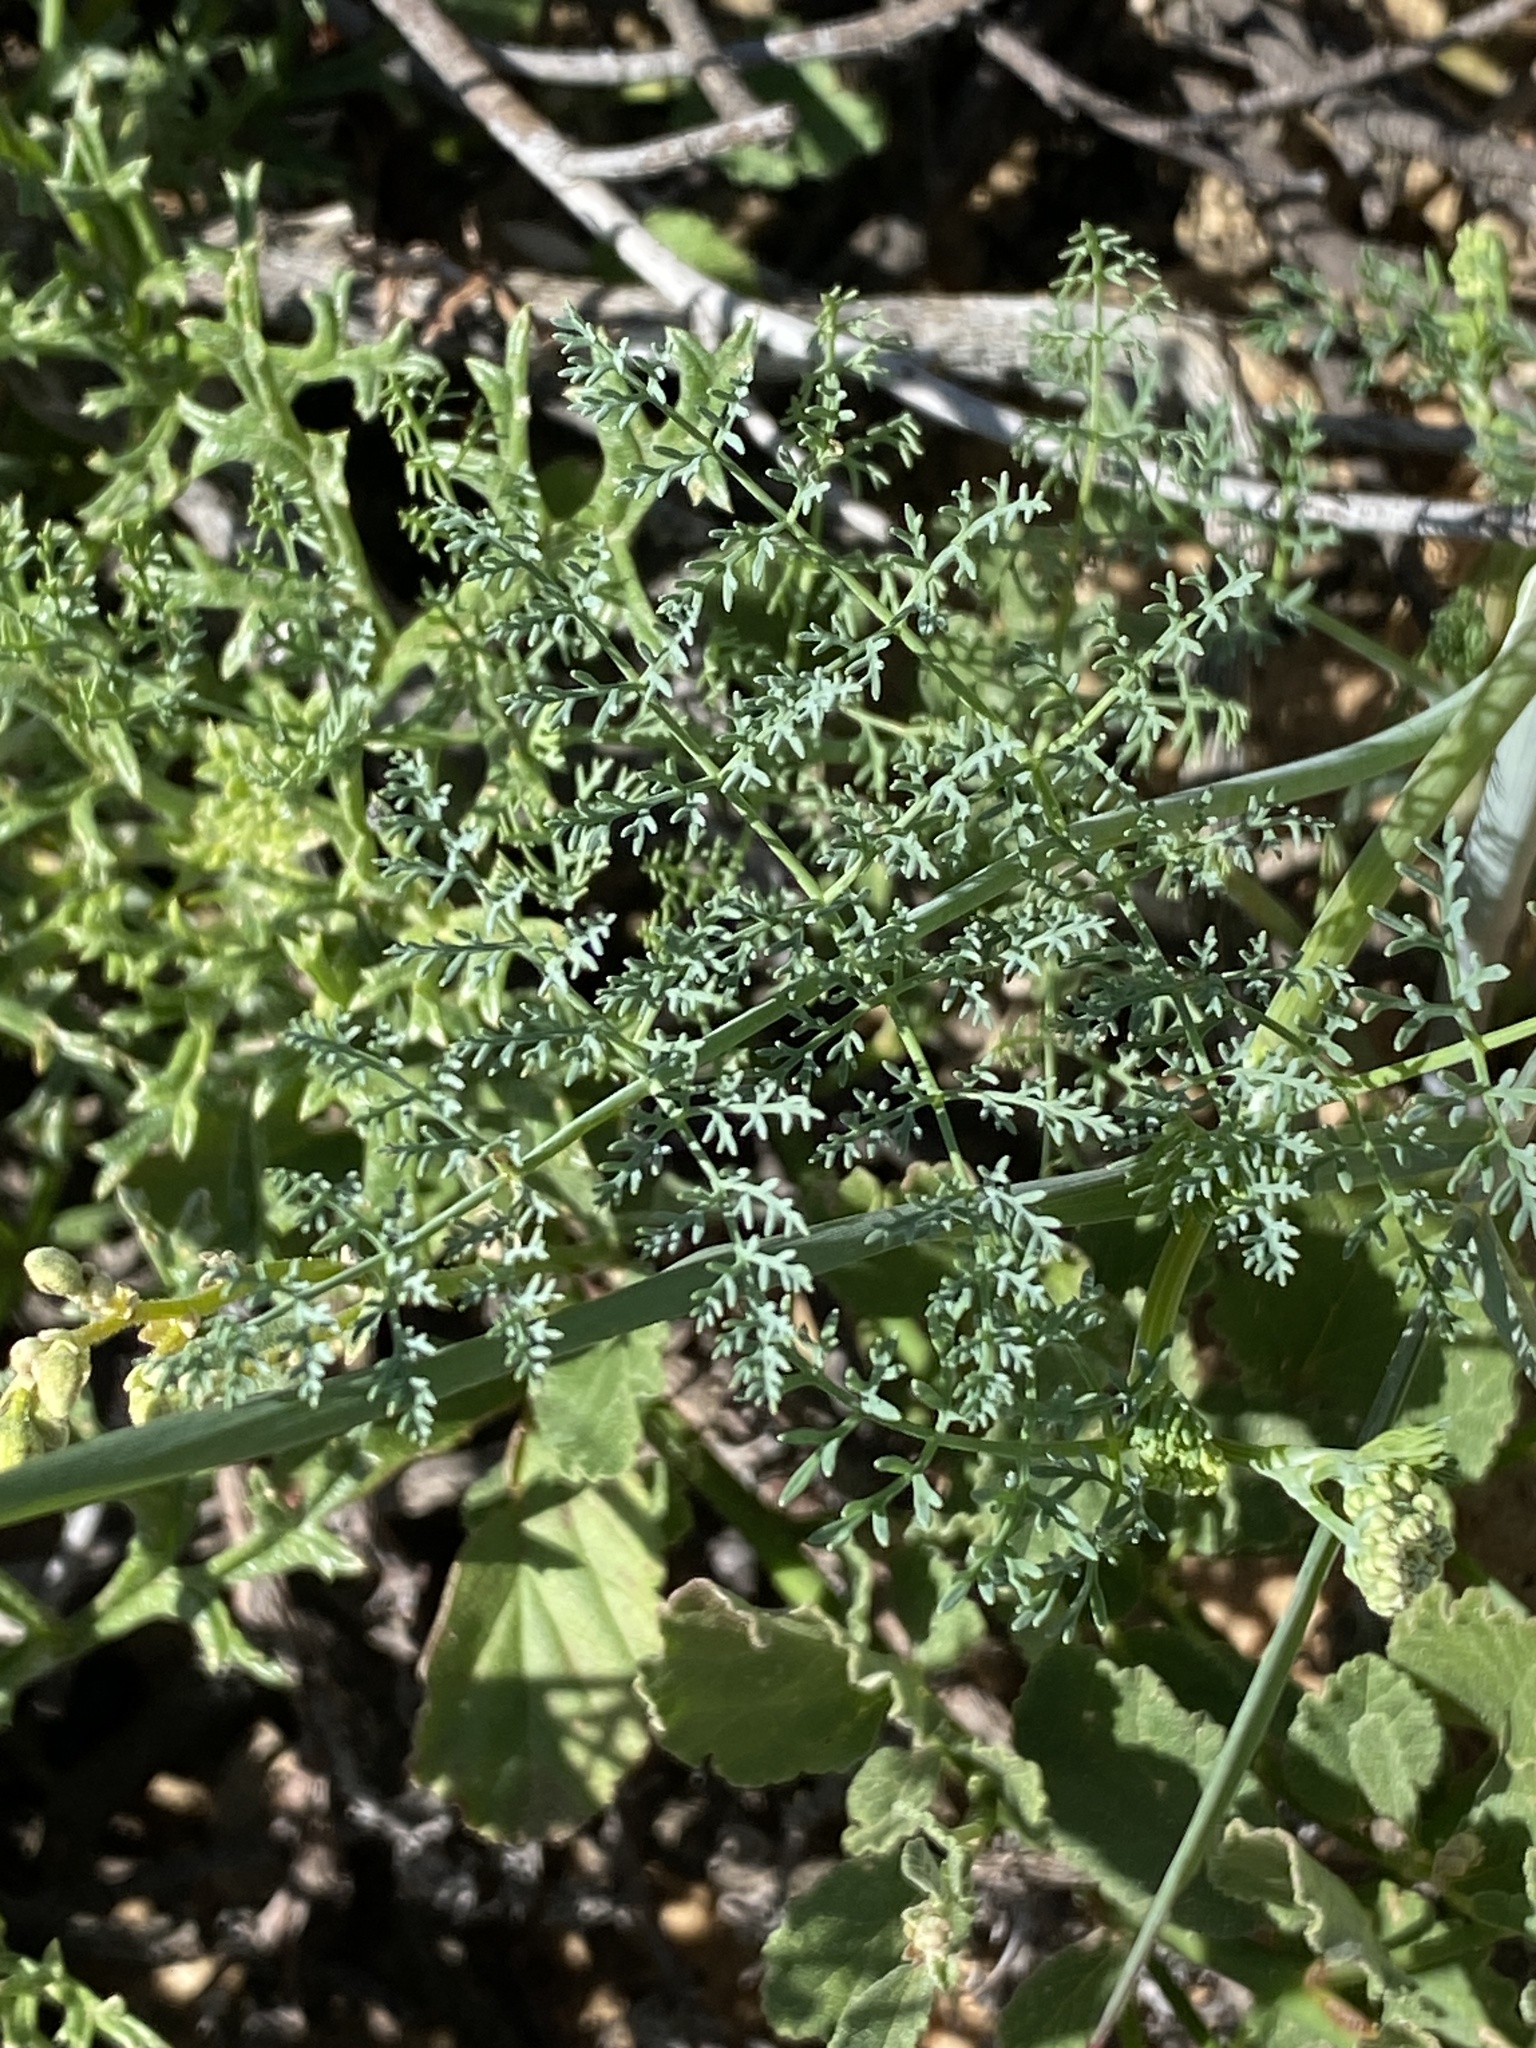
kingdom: Plantae
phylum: Tracheophyta
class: Magnoliopsida
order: Apiales
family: Apiaceae
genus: Capnophyllum
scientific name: Capnophyllum leiocarpon
